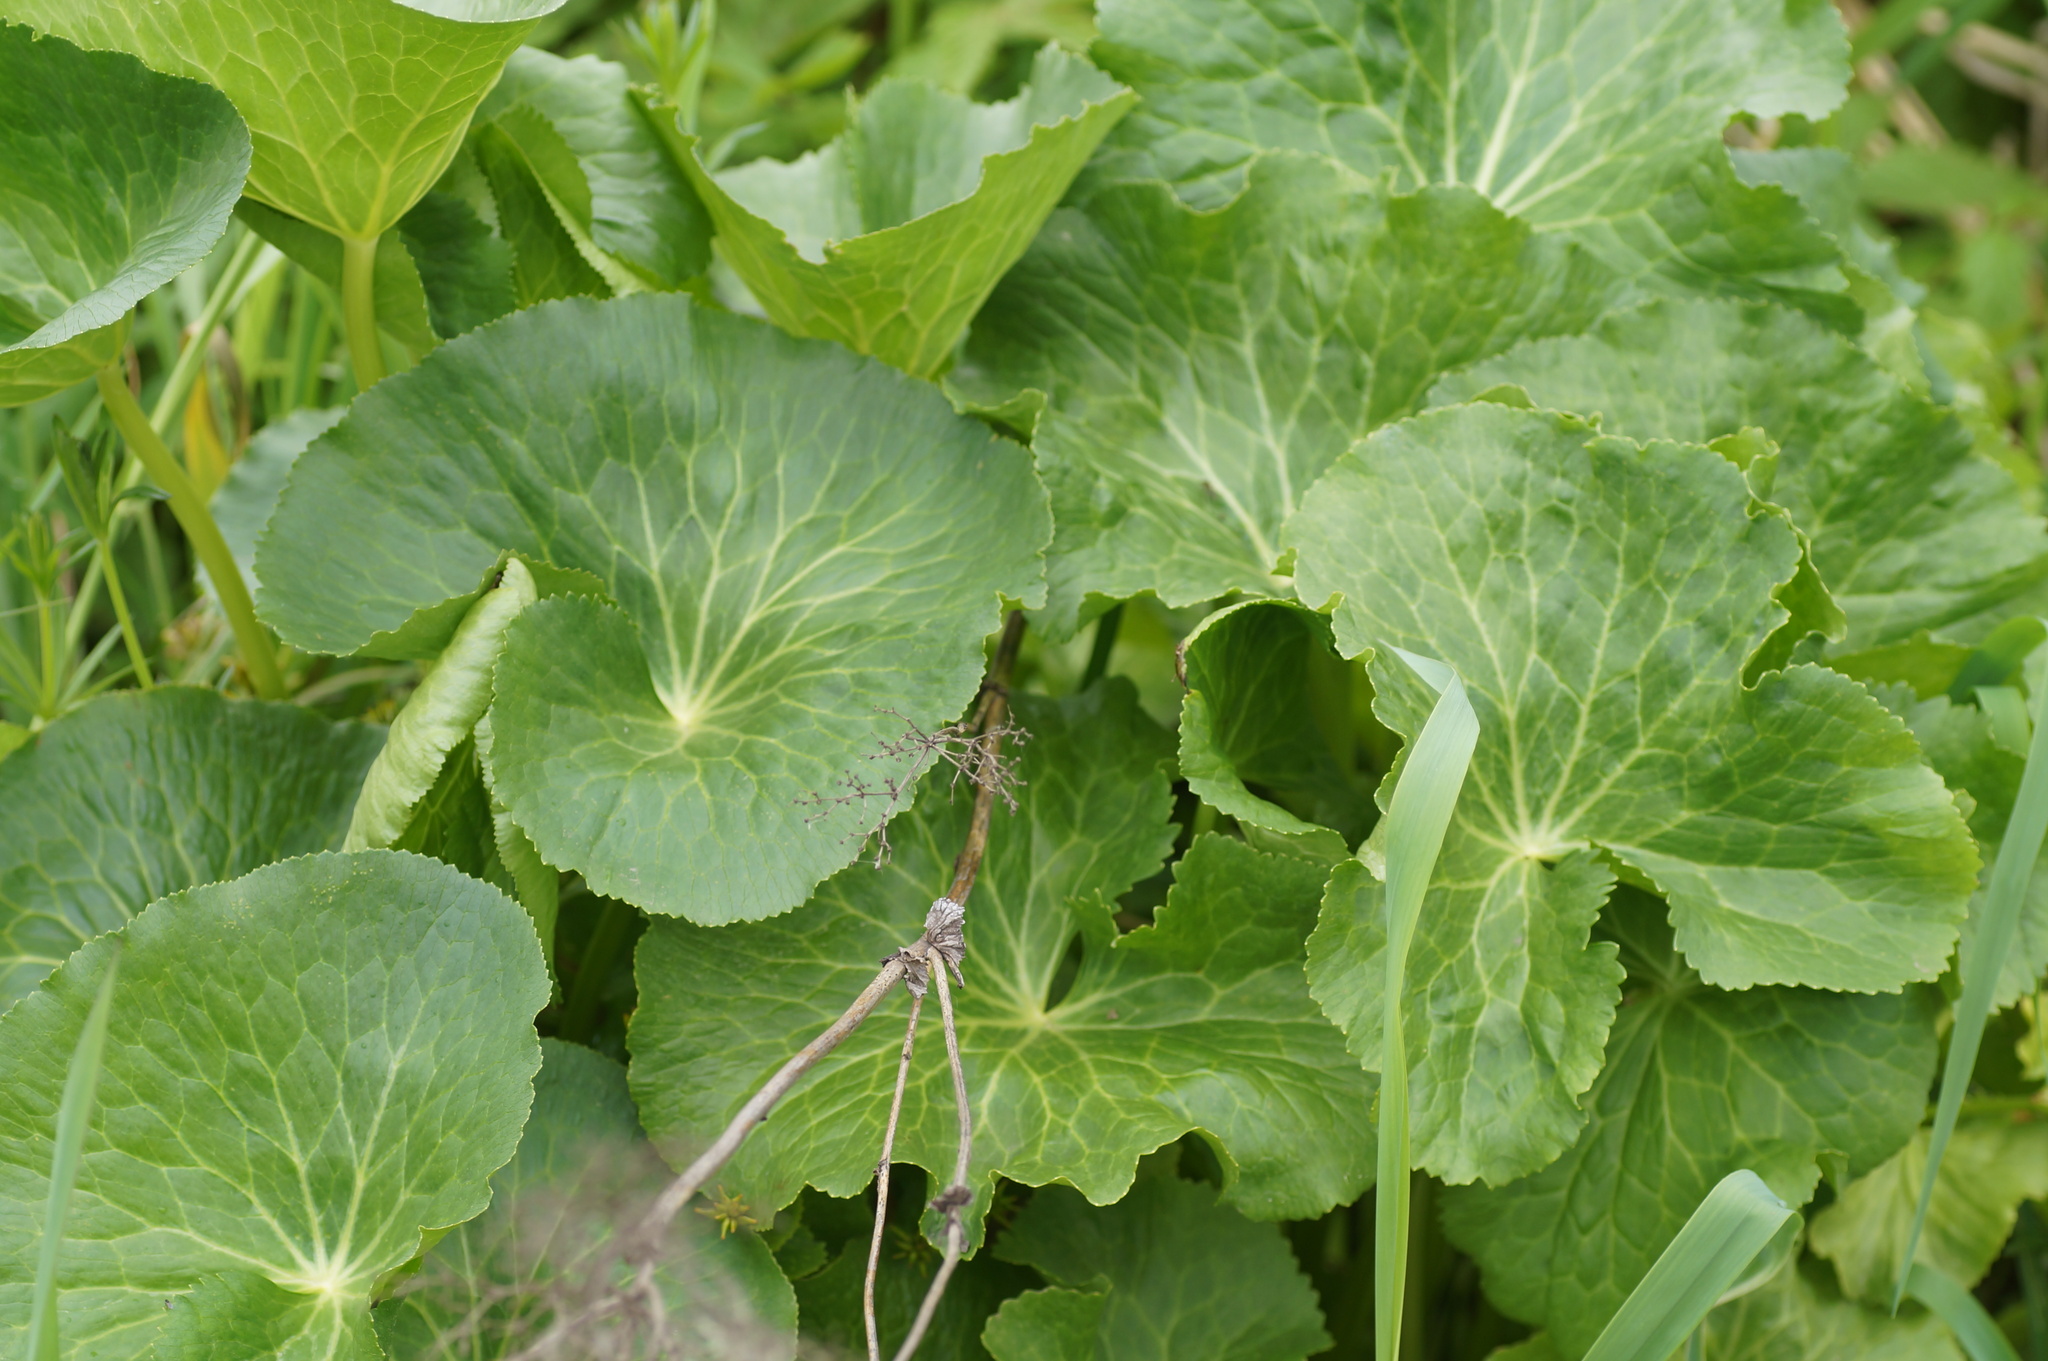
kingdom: Plantae
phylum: Tracheophyta
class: Magnoliopsida
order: Ranunculales
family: Ranunculaceae
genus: Caltha
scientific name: Caltha palustris
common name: Marsh marigold
